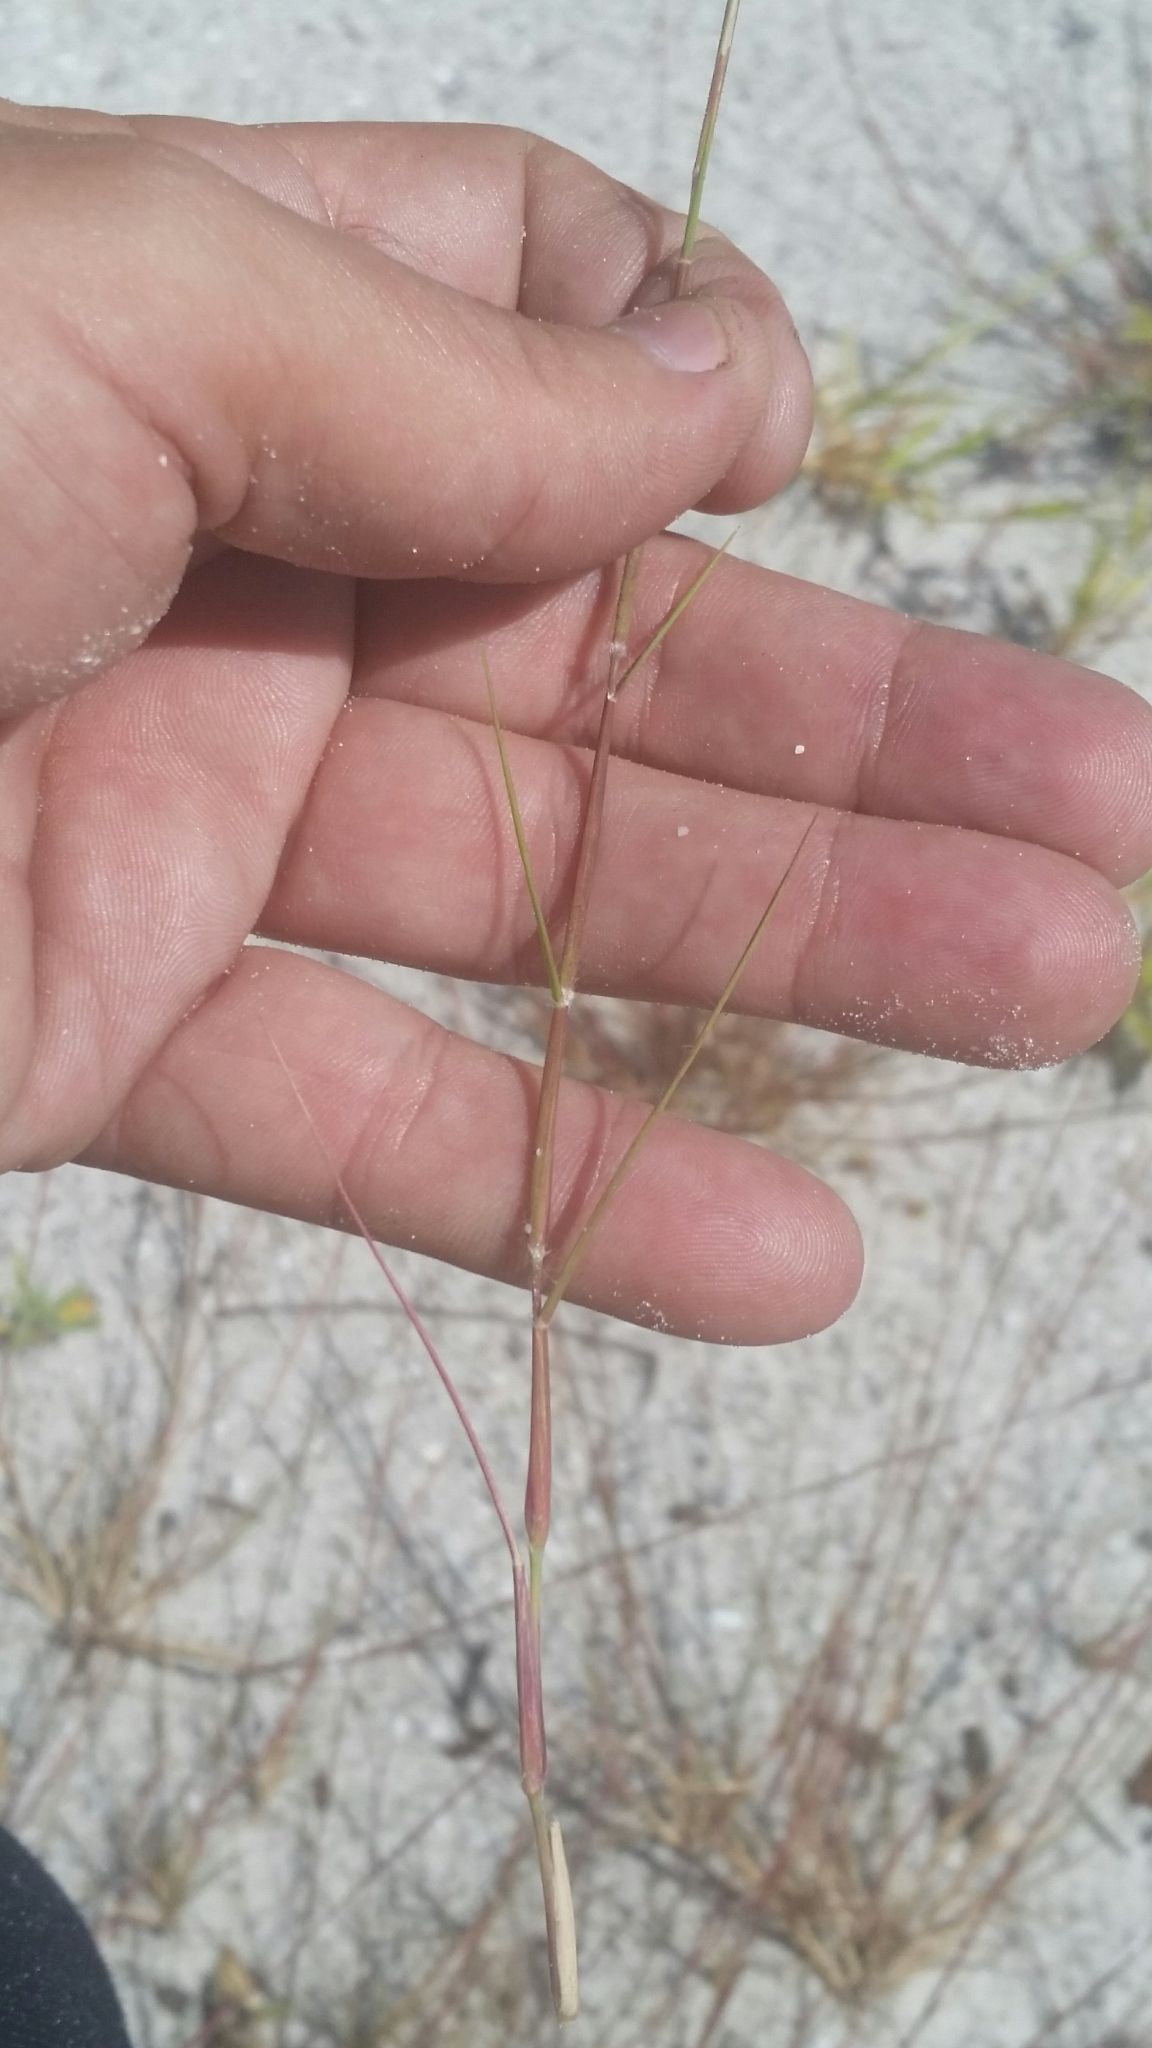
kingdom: Plantae
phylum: Tracheophyta
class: Liliopsida
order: Poales
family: Poaceae
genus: Triplasis
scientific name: Triplasis purpurea
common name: Purple sand grass
